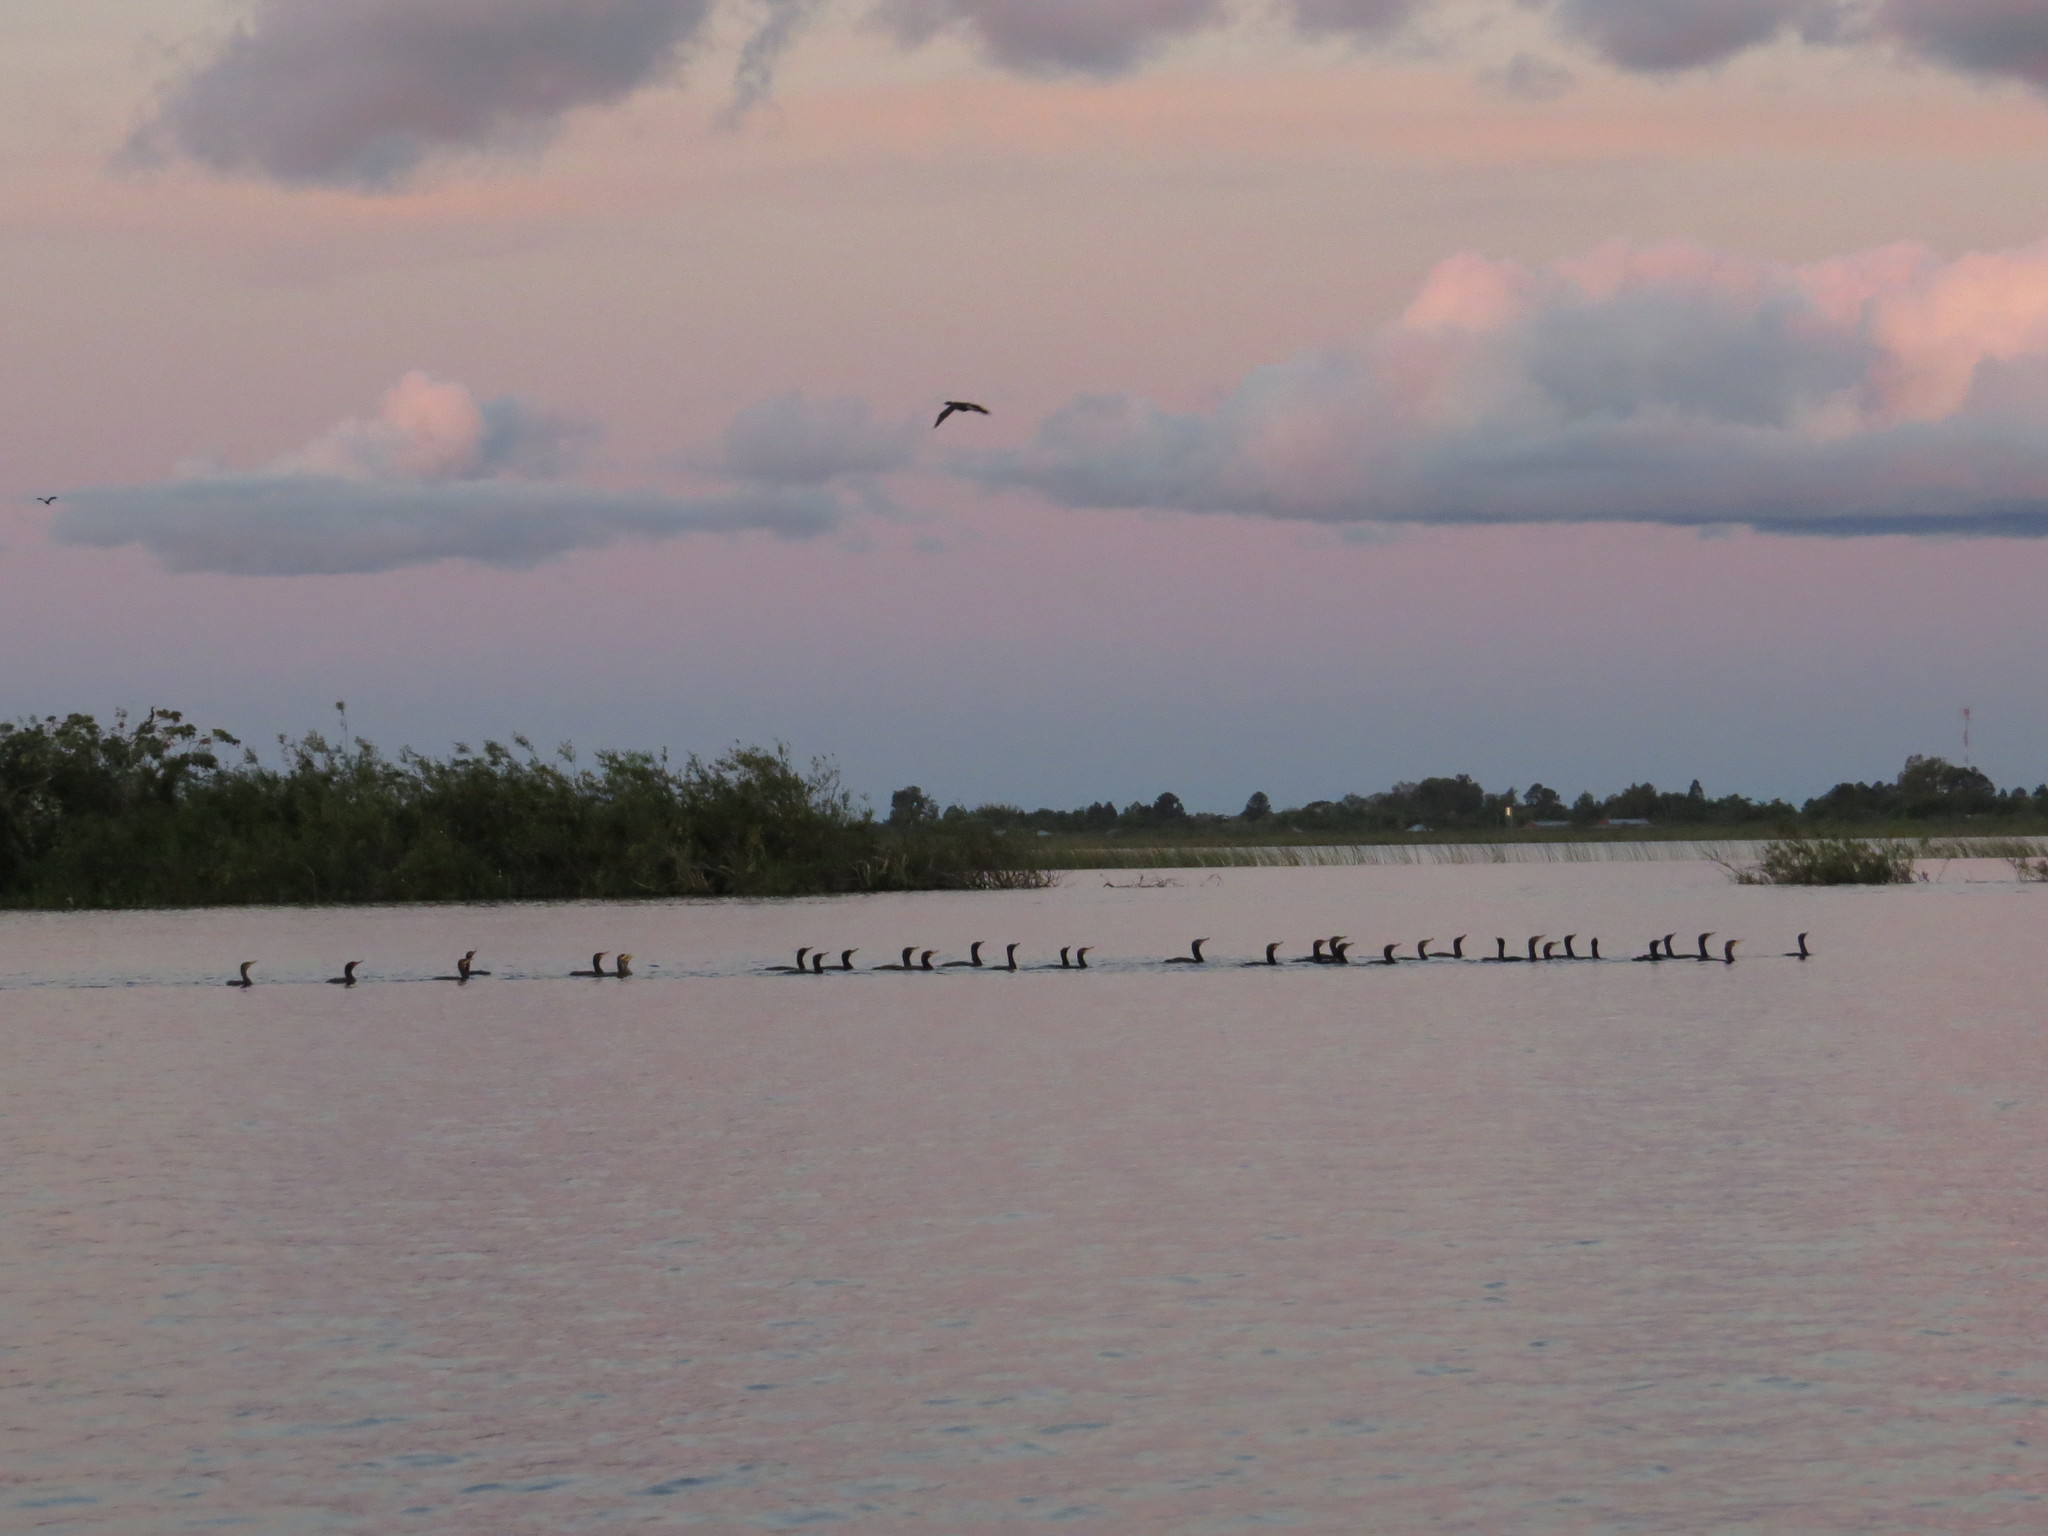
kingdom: Animalia
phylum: Chordata
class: Aves
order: Suliformes
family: Phalacrocoracidae
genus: Phalacrocorax
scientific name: Phalacrocorax brasilianus
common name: Neotropic cormorant
